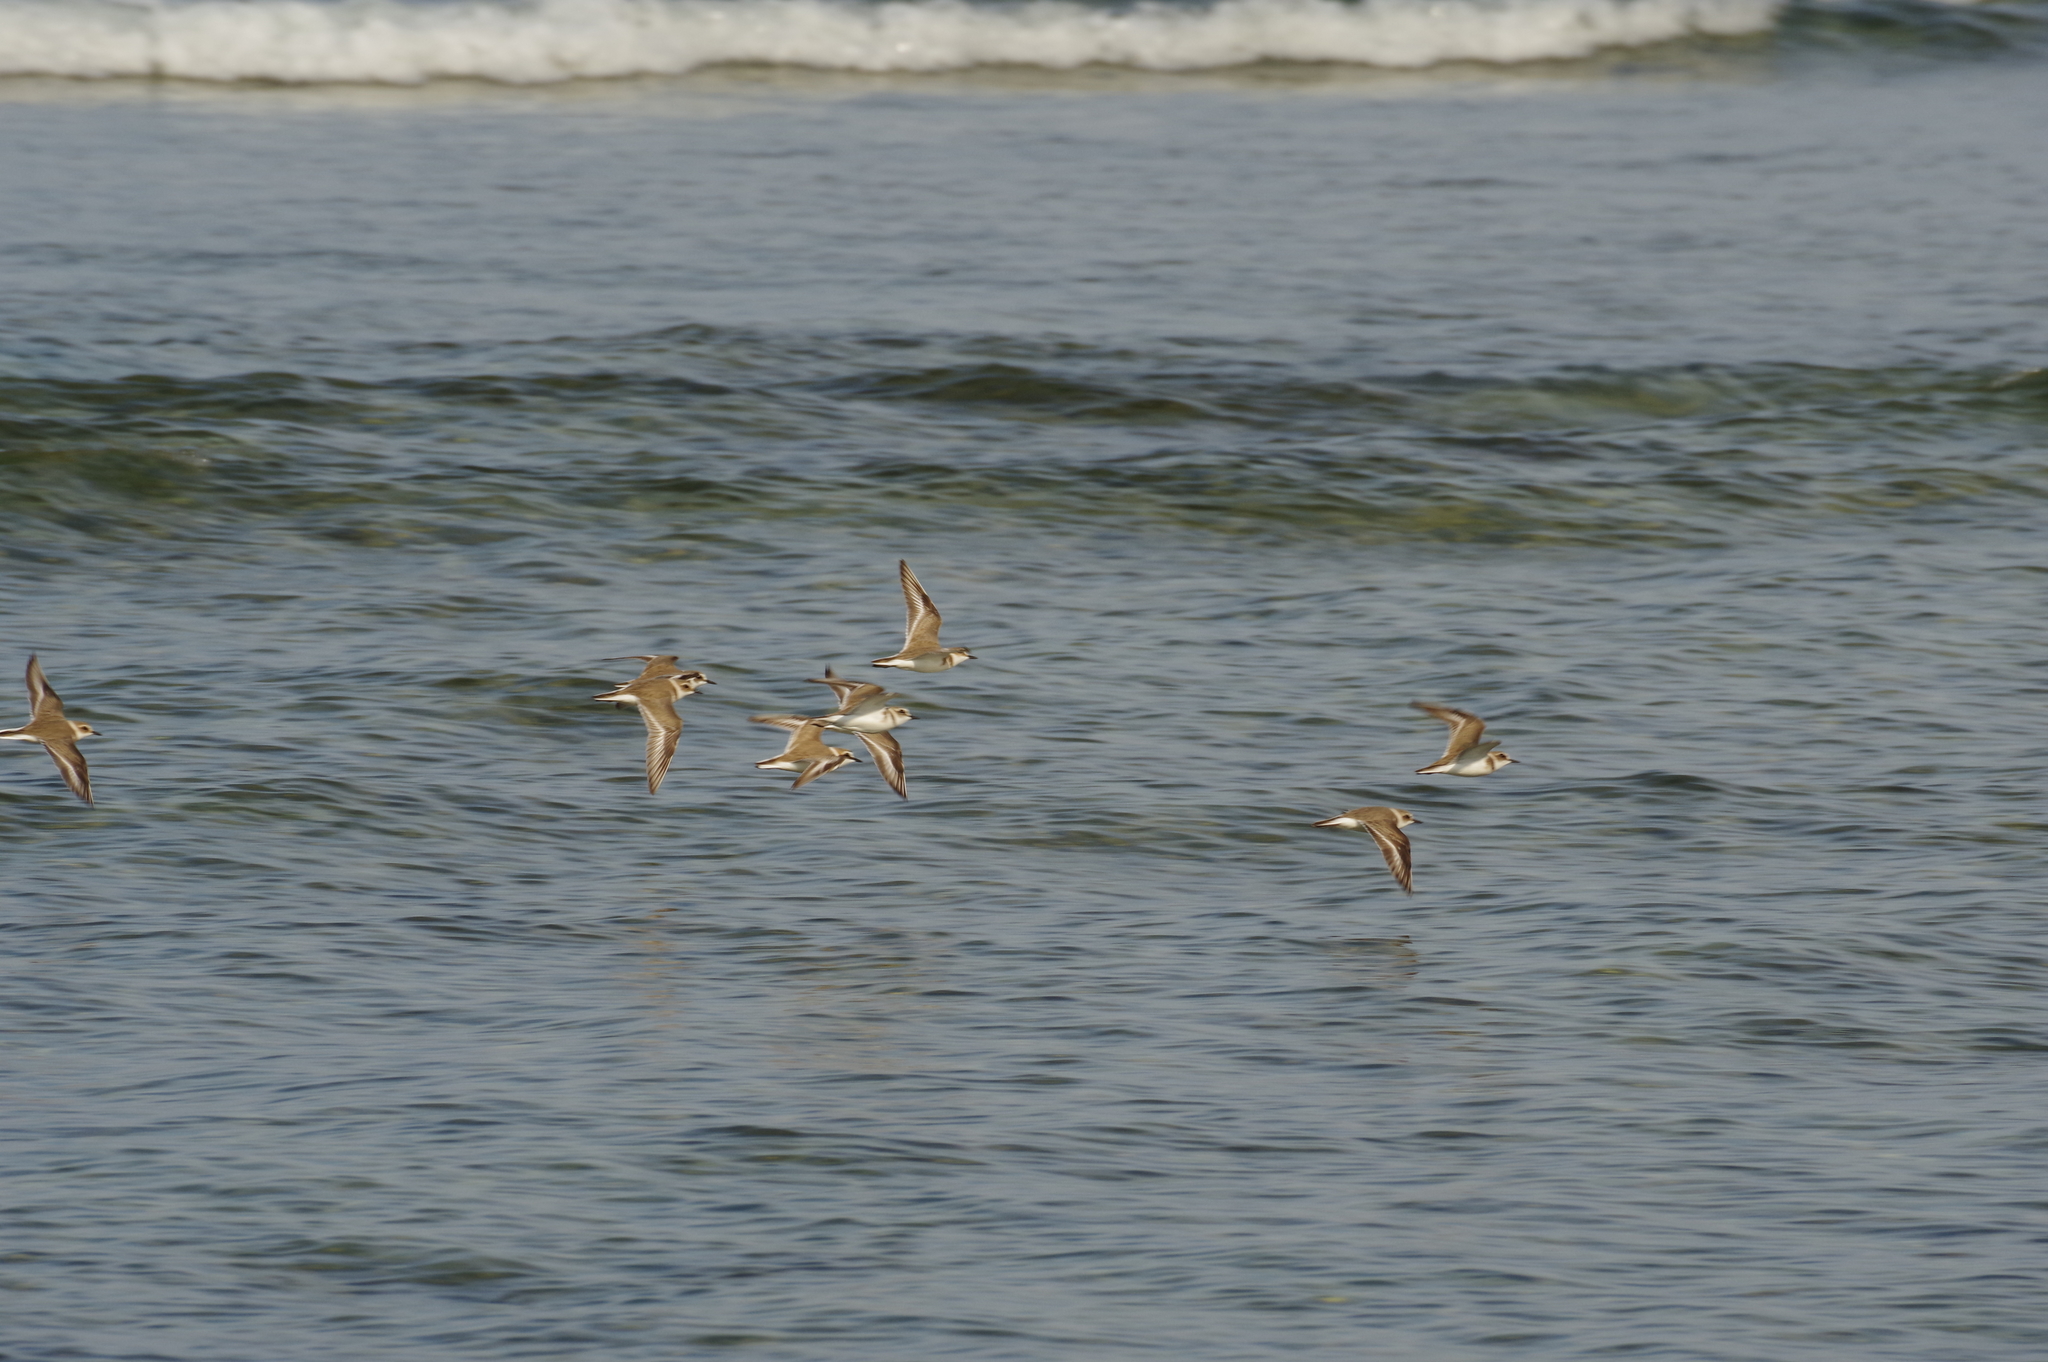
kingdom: Animalia
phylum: Chordata
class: Aves
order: Charadriiformes
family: Charadriidae
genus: Charadrius
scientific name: Charadrius alexandrinus
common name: Kentish plover
